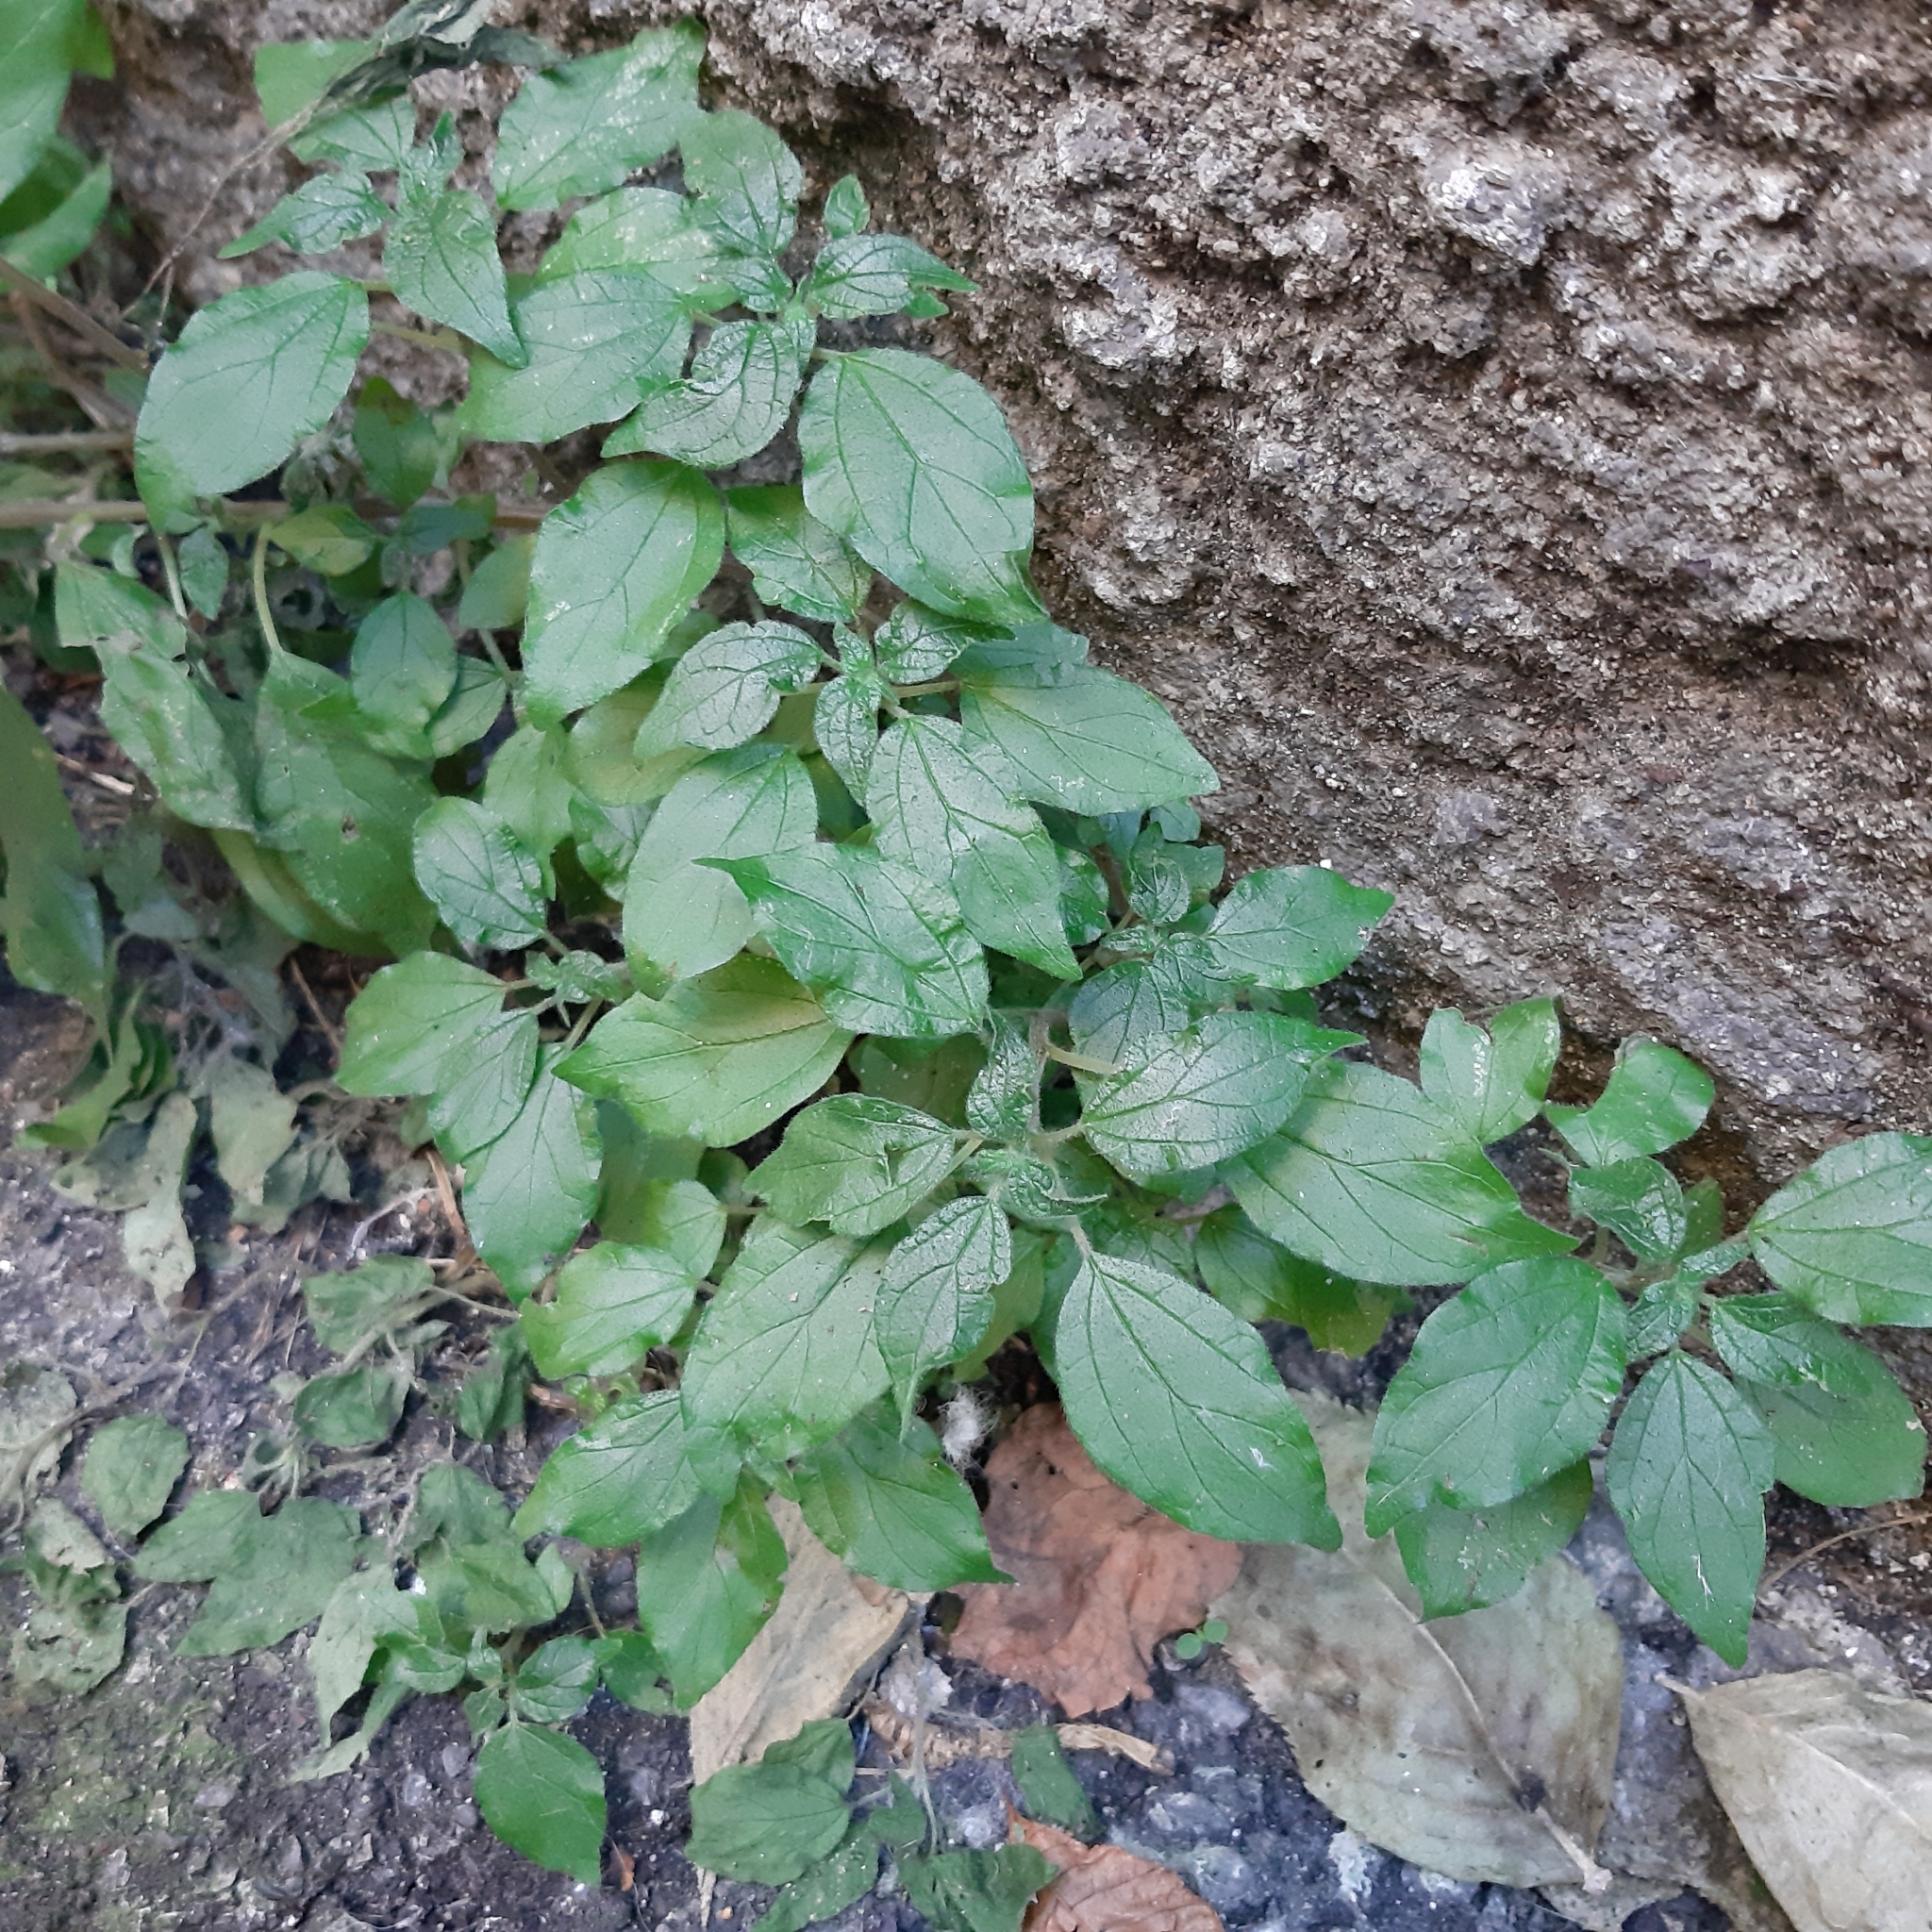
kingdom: Plantae
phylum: Tracheophyta
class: Magnoliopsida
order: Rosales
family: Urticaceae
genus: Parietaria
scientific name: Parietaria judaica
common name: Pellitory-of-the-wall
